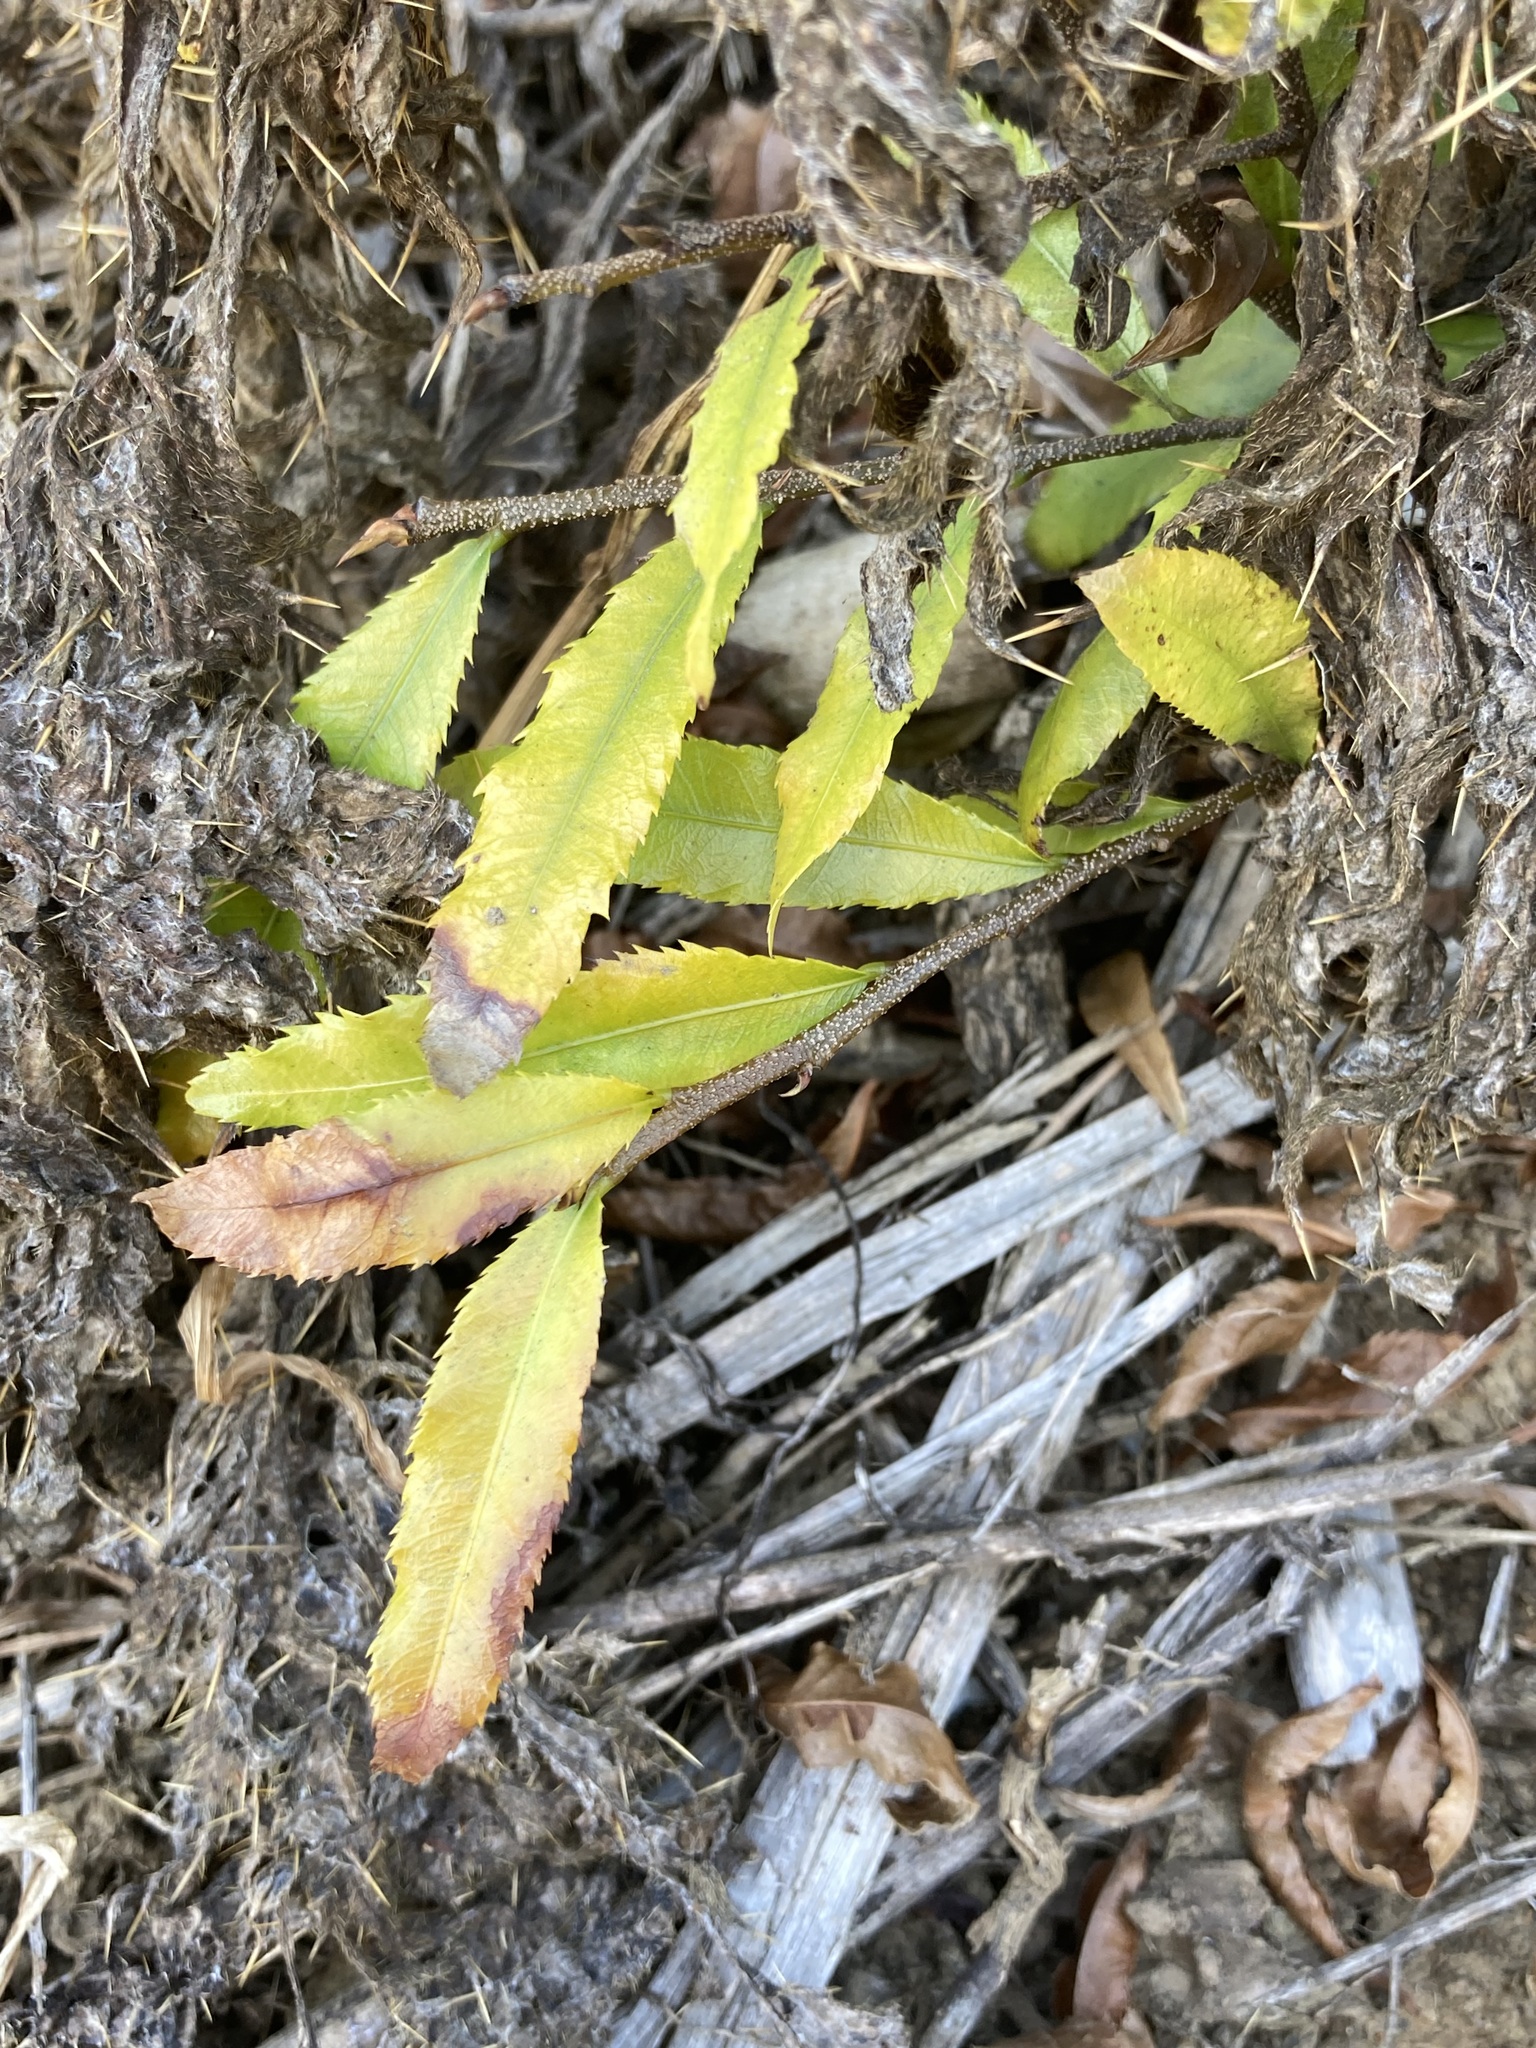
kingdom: Plantae
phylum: Tracheophyta
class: Magnoliopsida
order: Malpighiales
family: Ochnaceae
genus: Ochna
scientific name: Ochna serrulata
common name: Mickey mouse plant
